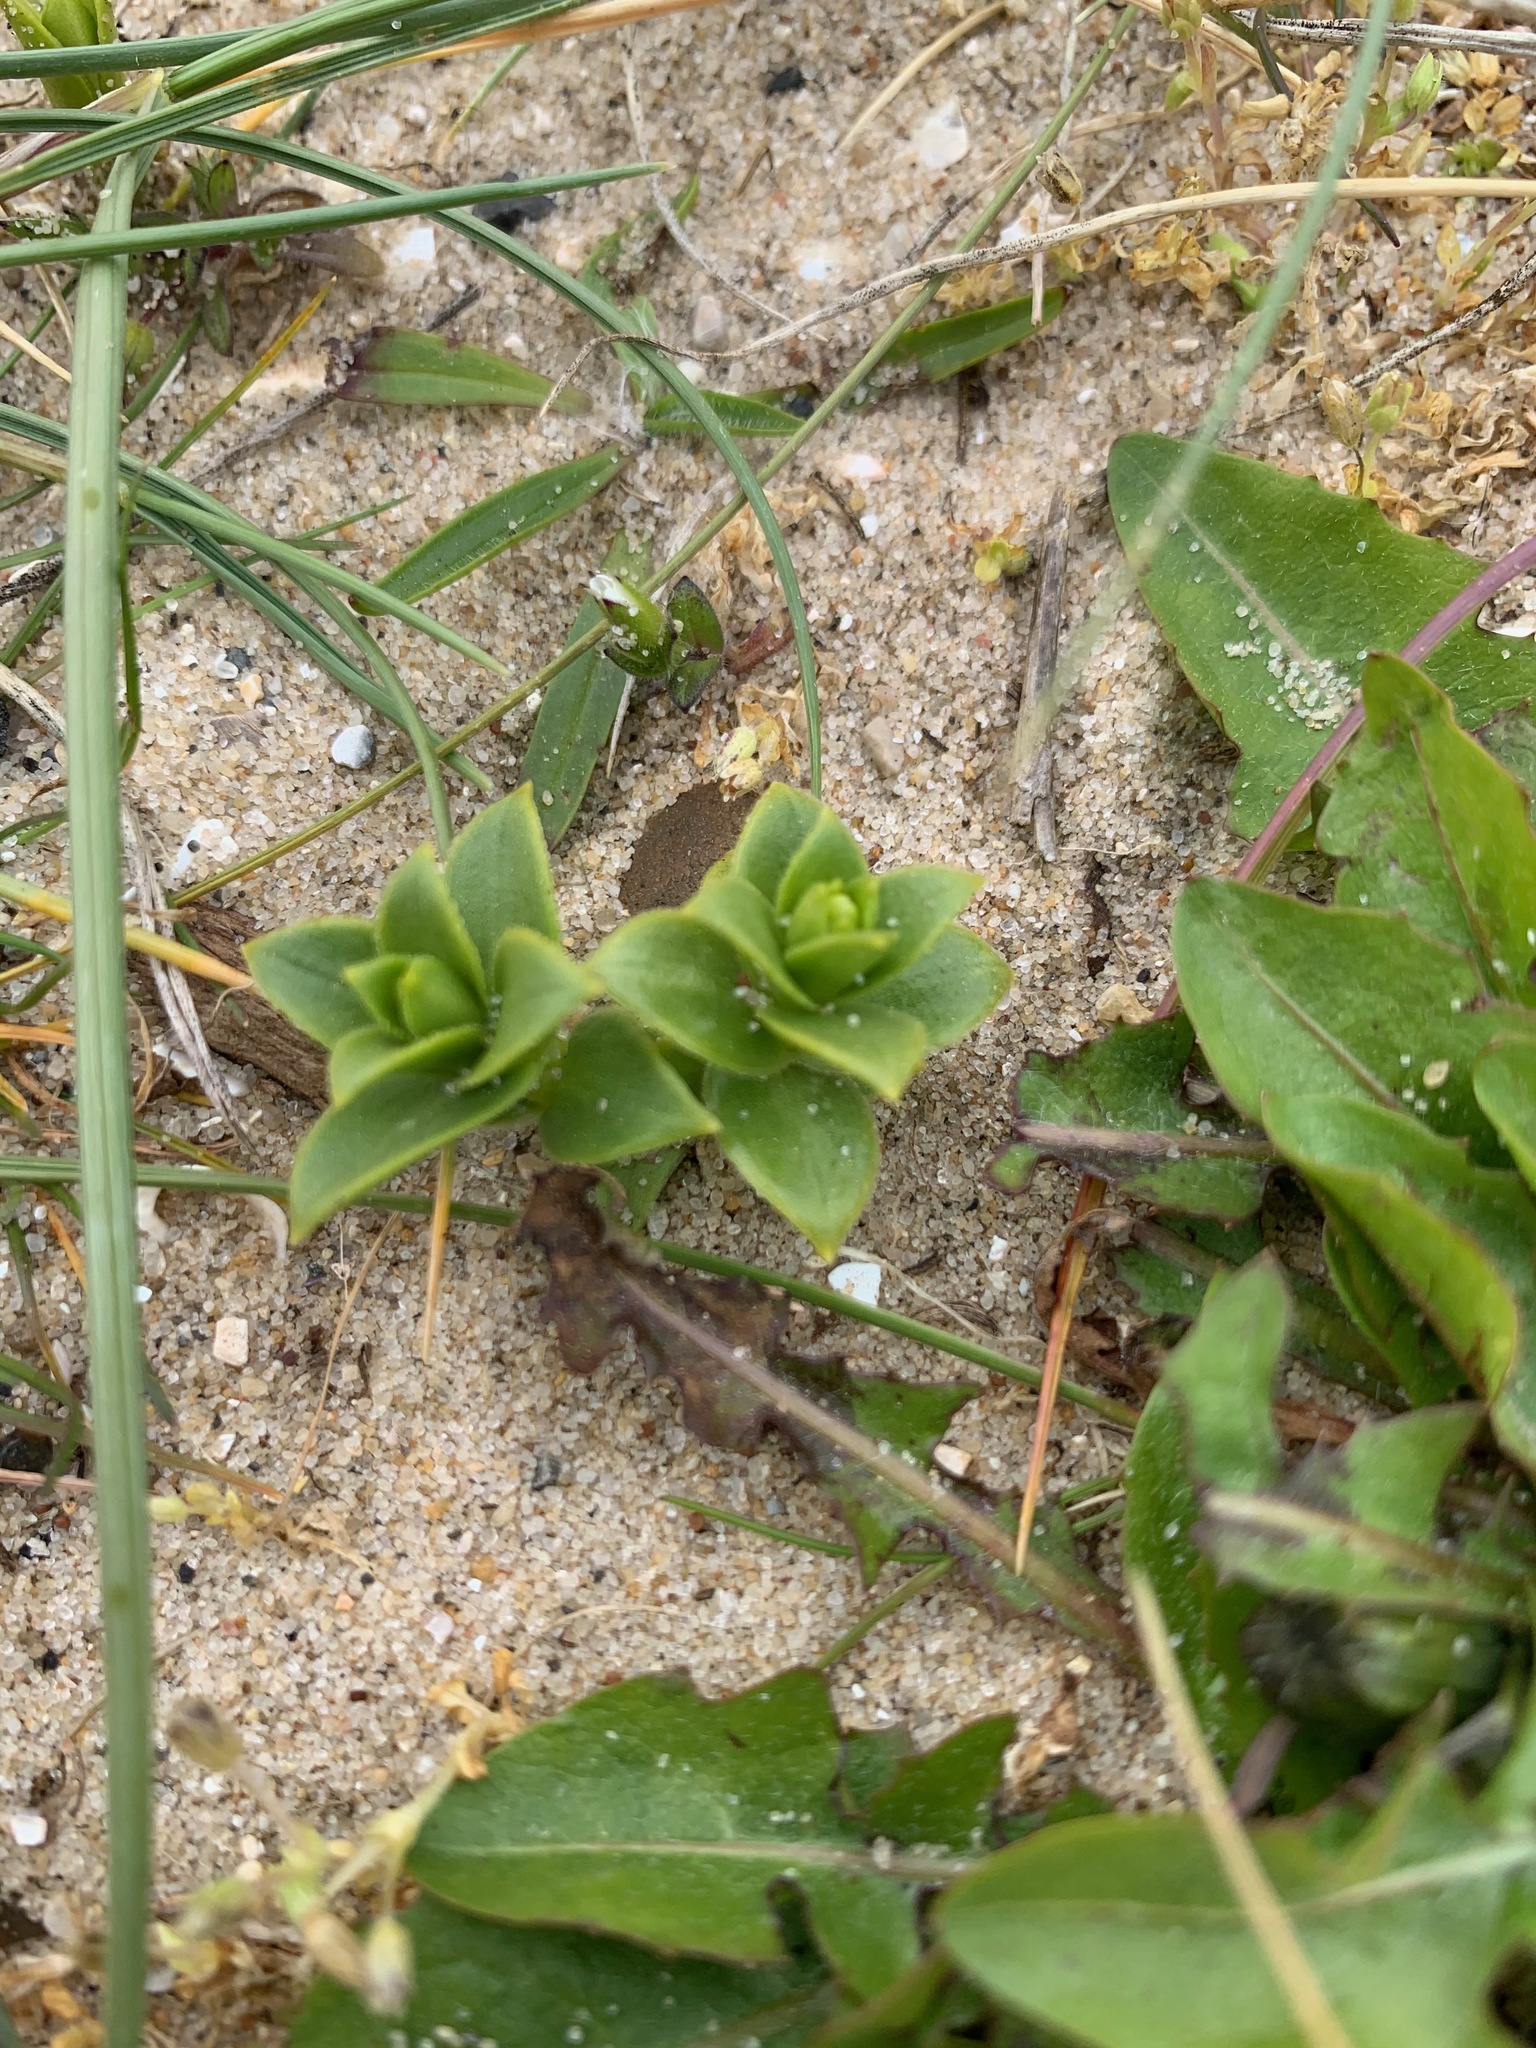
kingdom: Plantae
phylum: Tracheophyta
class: Magnoliopsida
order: Caryophyllales
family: Caryophyllaceae
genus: Honckenya
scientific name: Honckenya peploides
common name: Sea sandwort
